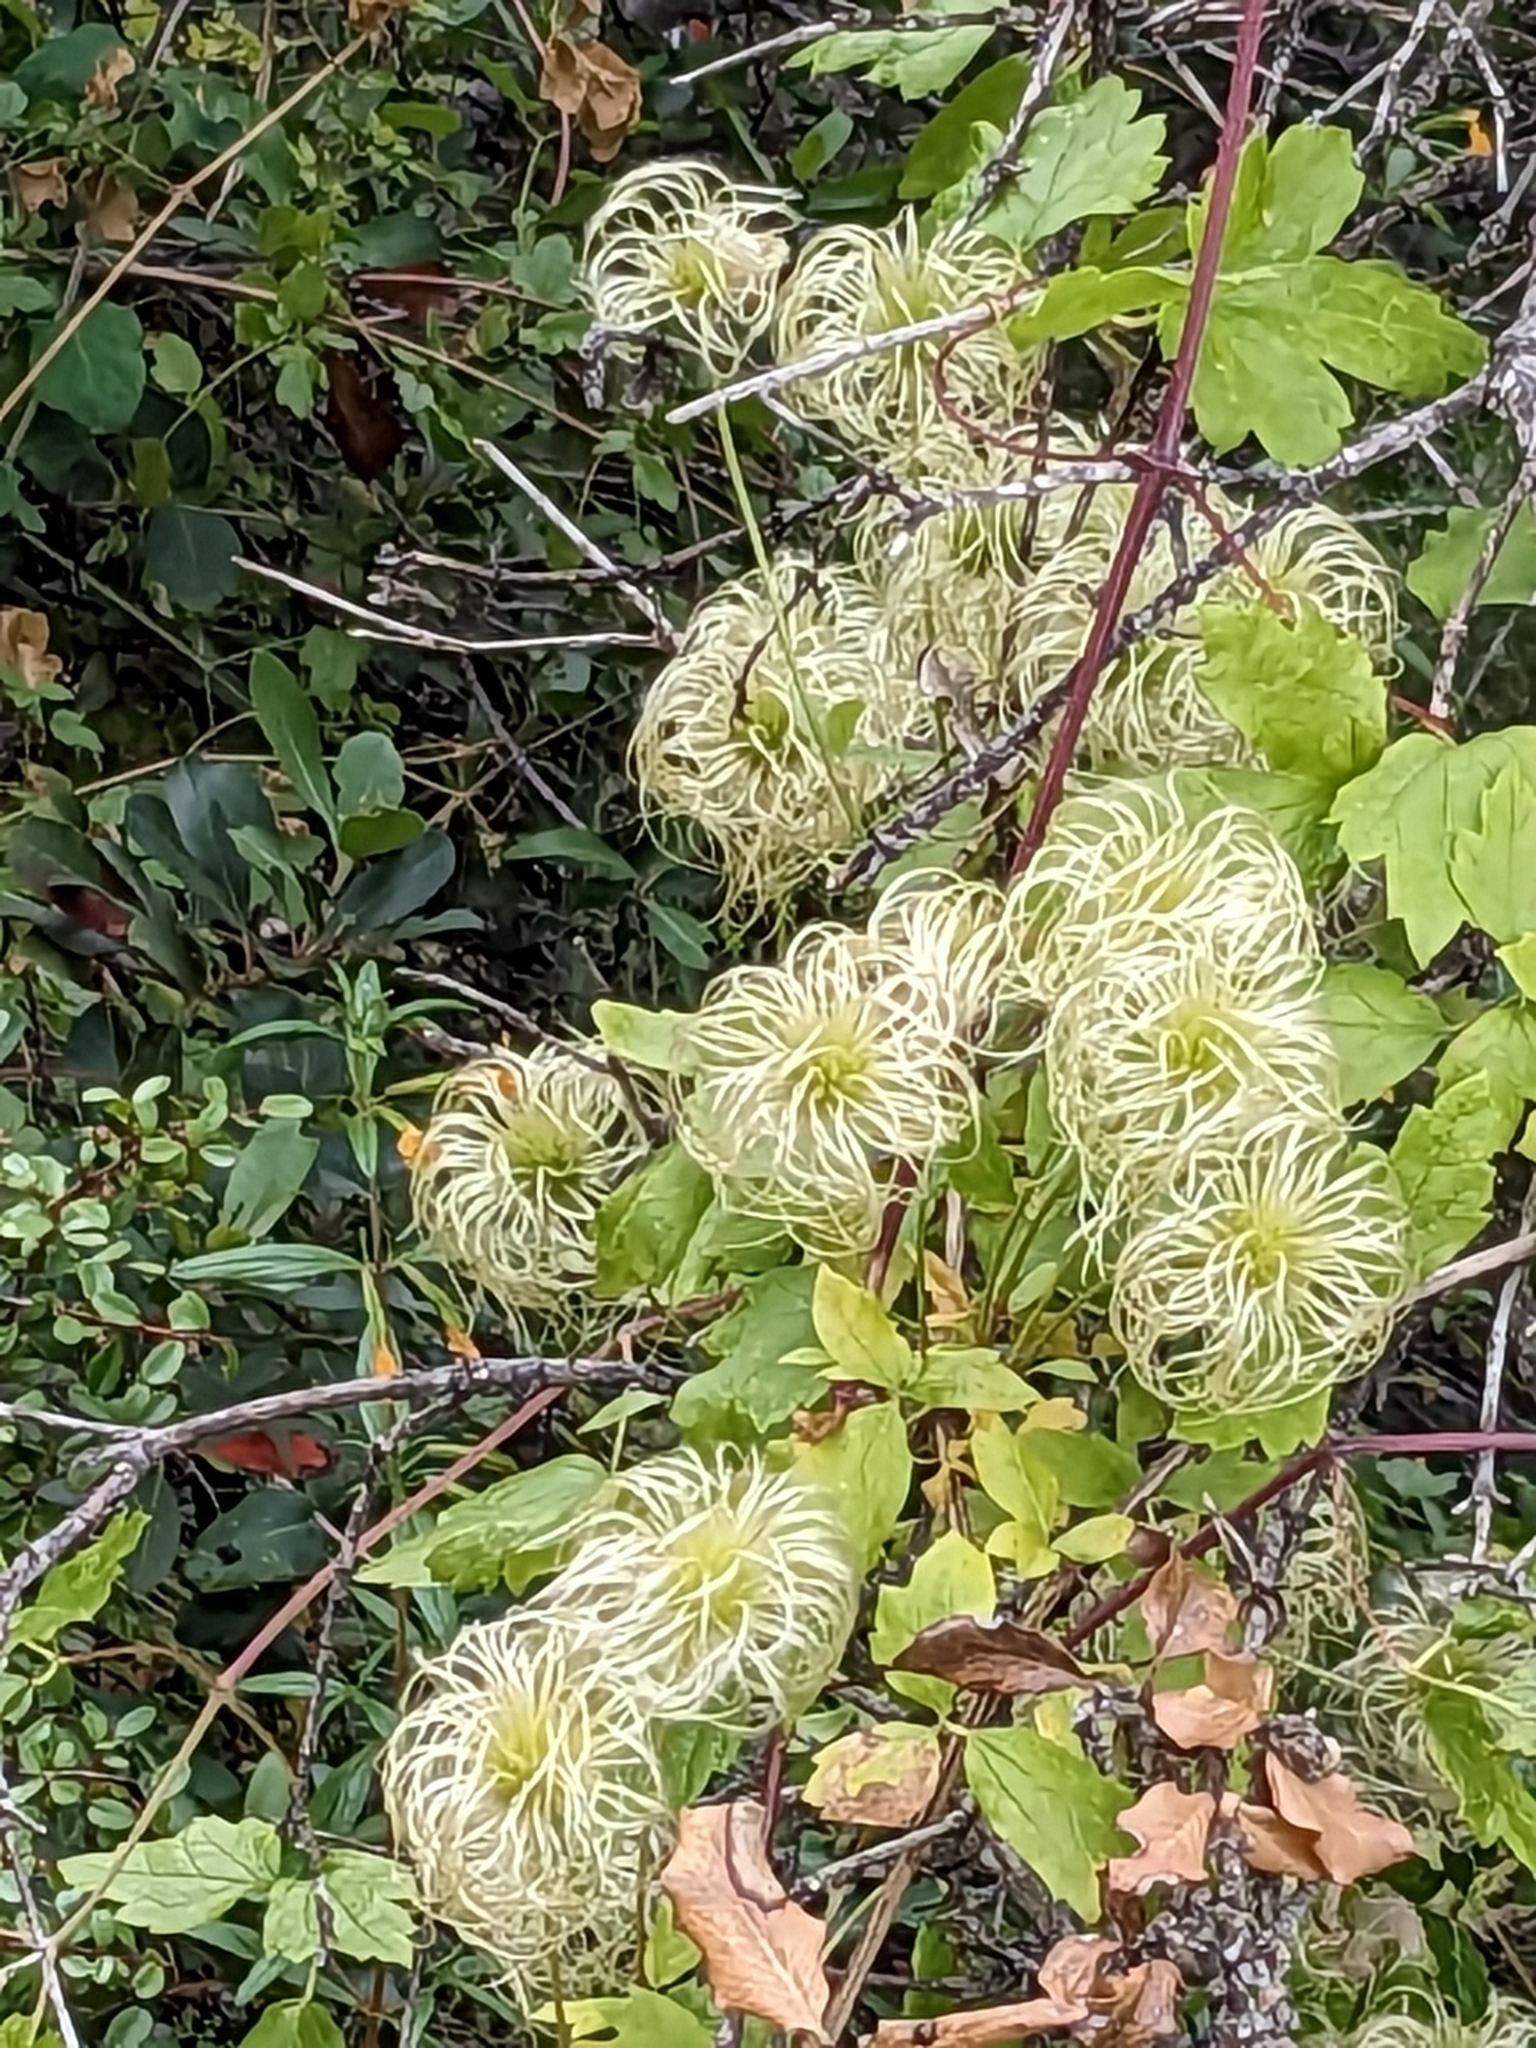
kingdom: Plantae
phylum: Tracheophyta
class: Magnoliopsida
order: Ranunculales
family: Ranunculaceae
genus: Clematis
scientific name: Clematis lasiantha
